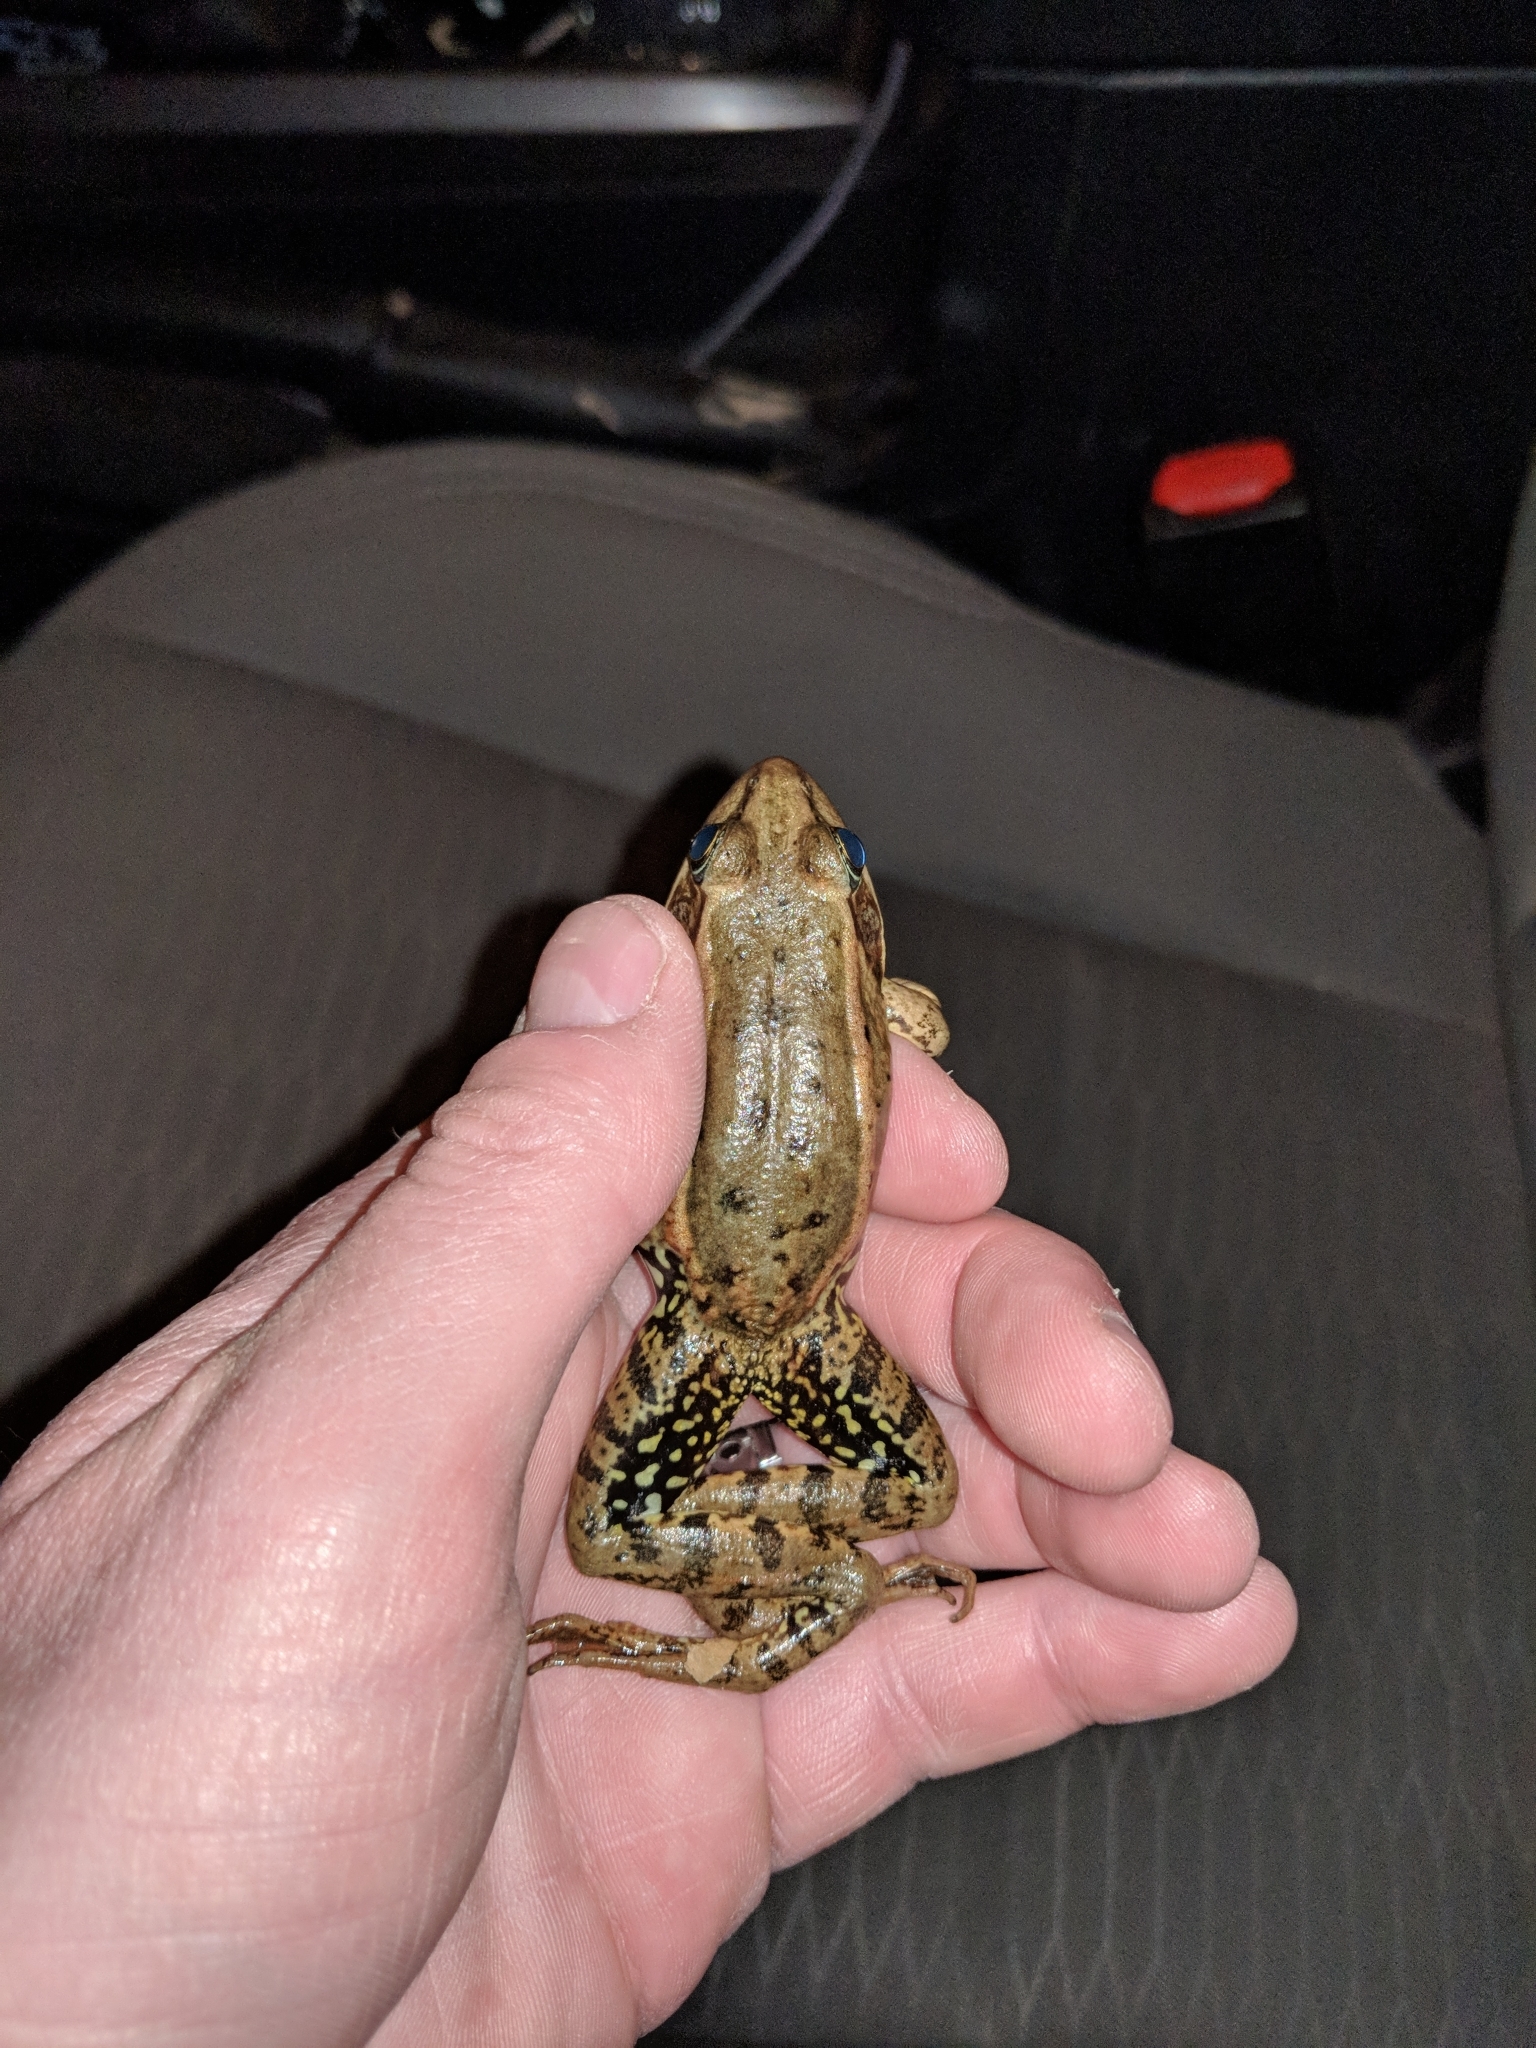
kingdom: Animalia
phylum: Chordata
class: Amphibia
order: Anura
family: Ranidae
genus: Rana
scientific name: Rana draytonii
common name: California red-legged frog
